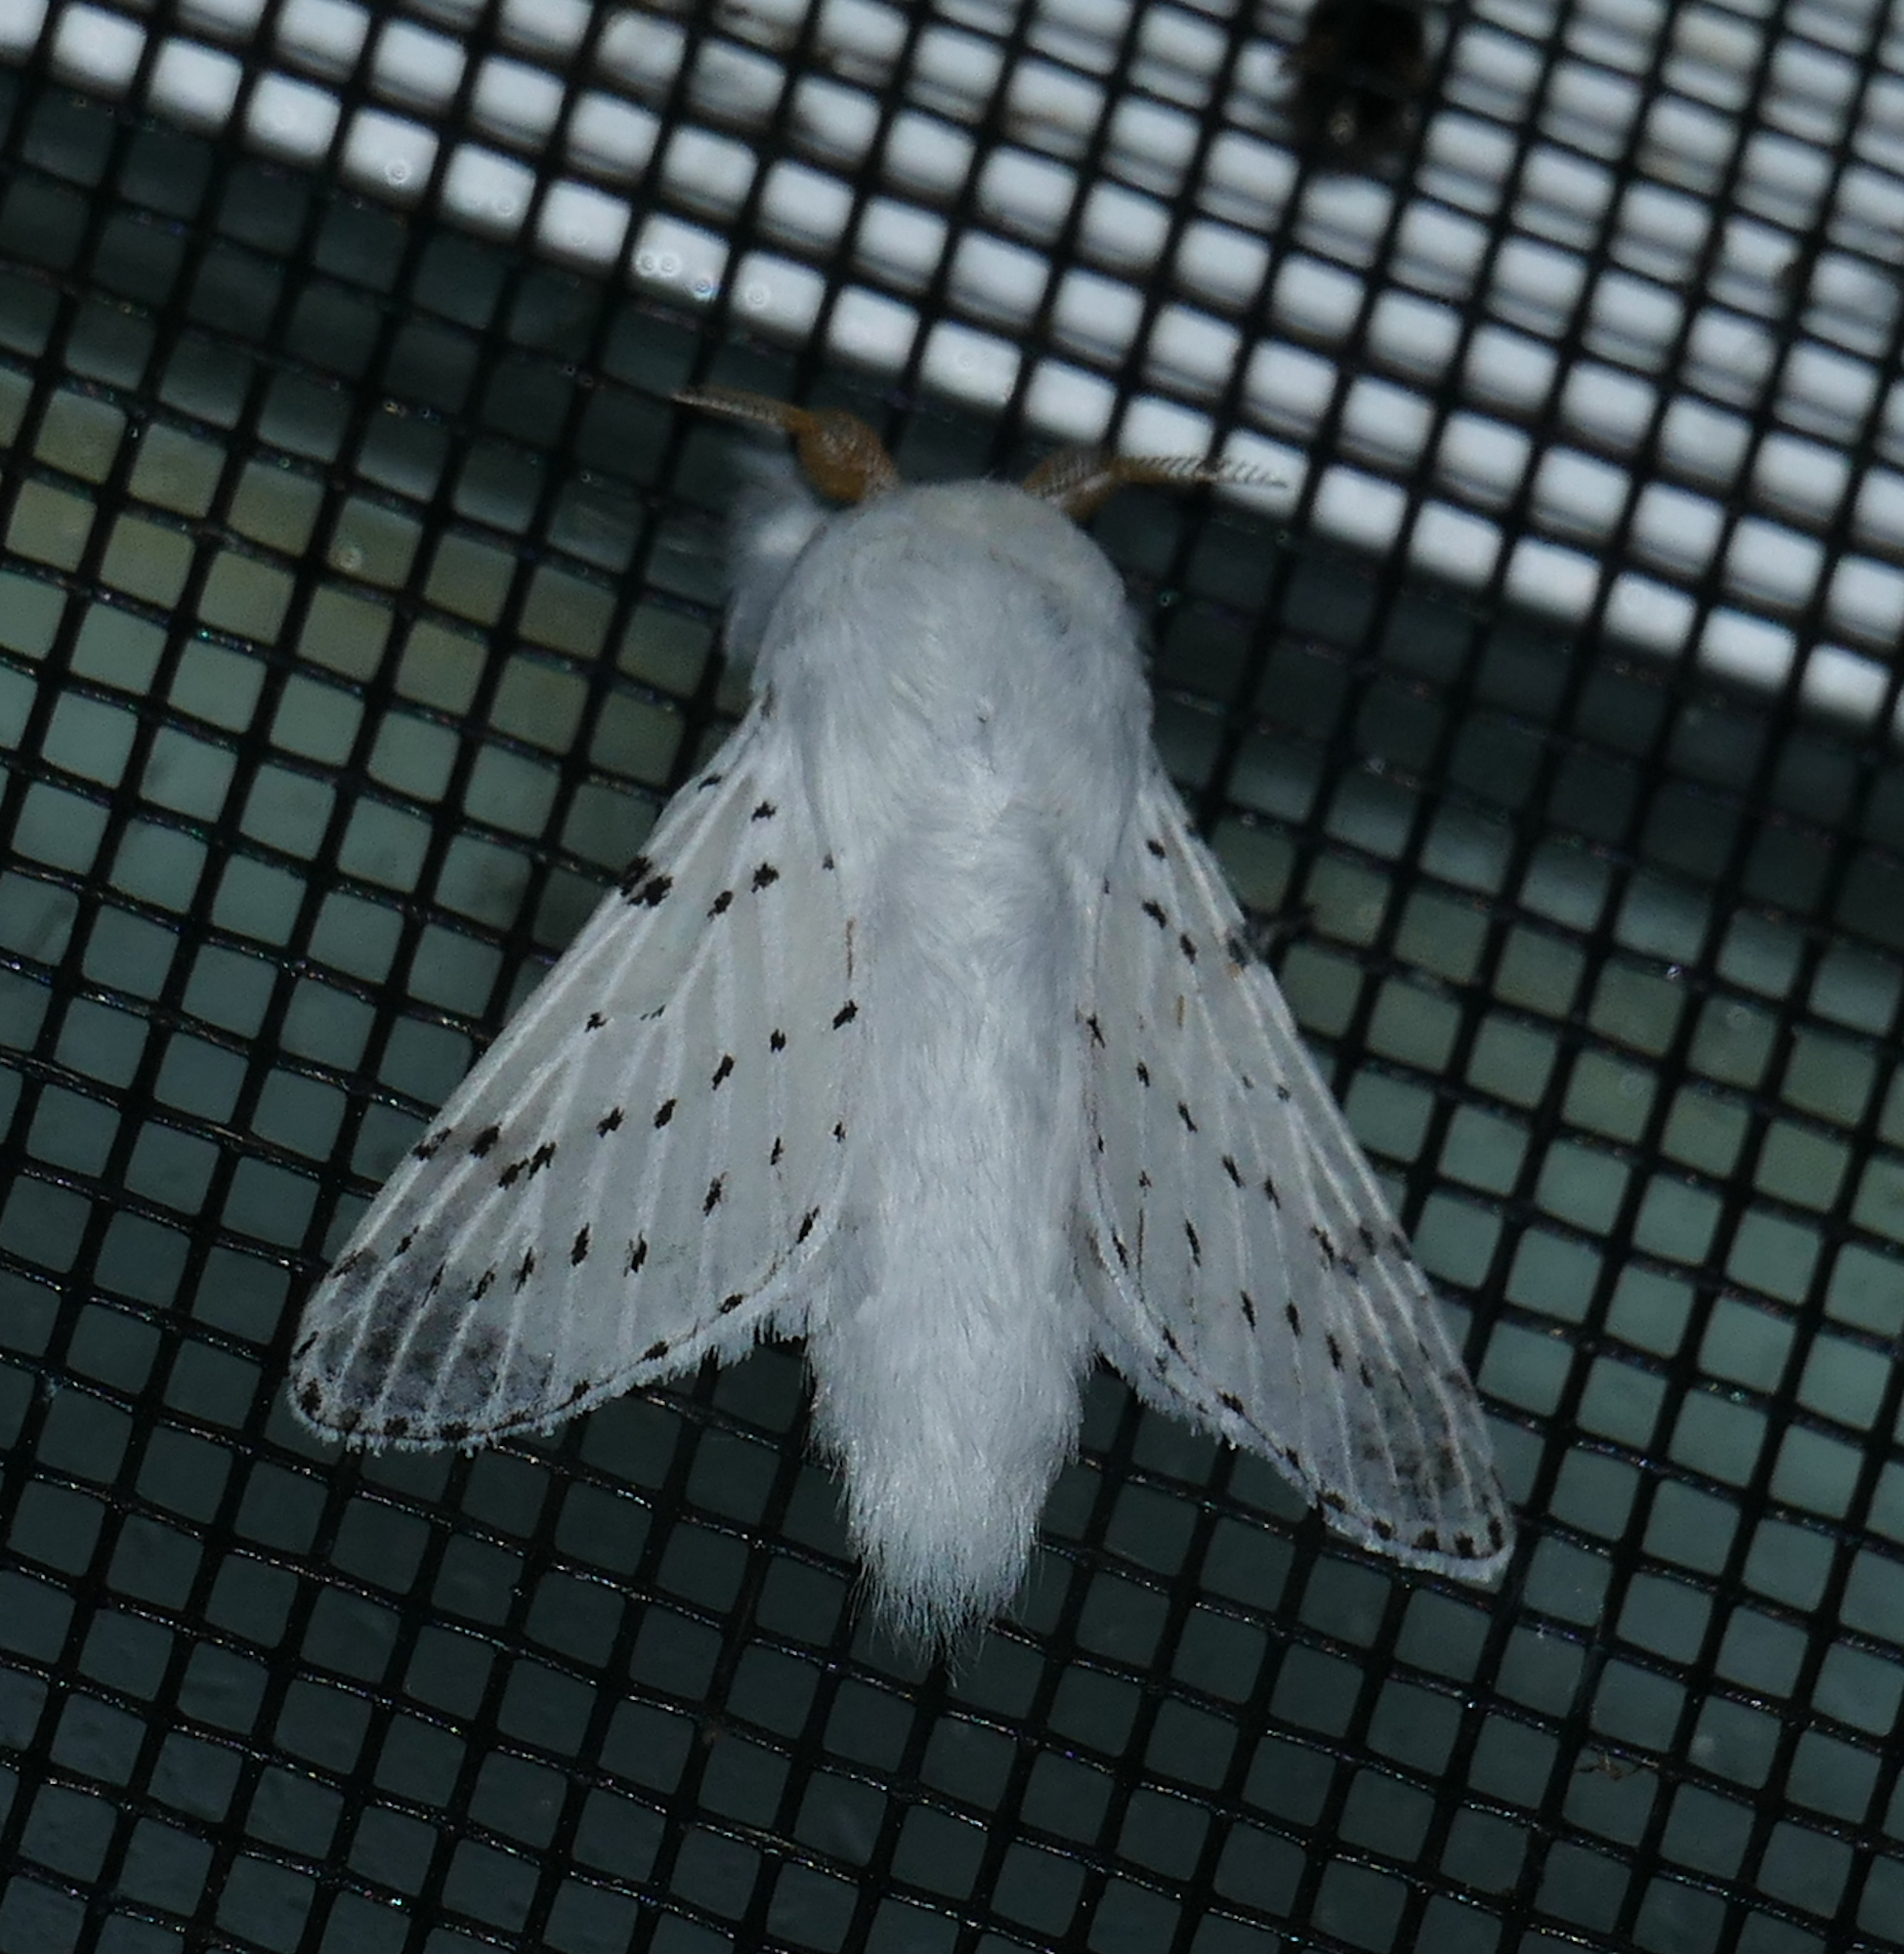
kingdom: Animalia
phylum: Arthropoda
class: Insecta
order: Lepidoptera
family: Lasiocampidae
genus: Artace
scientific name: Artace cribrarius
